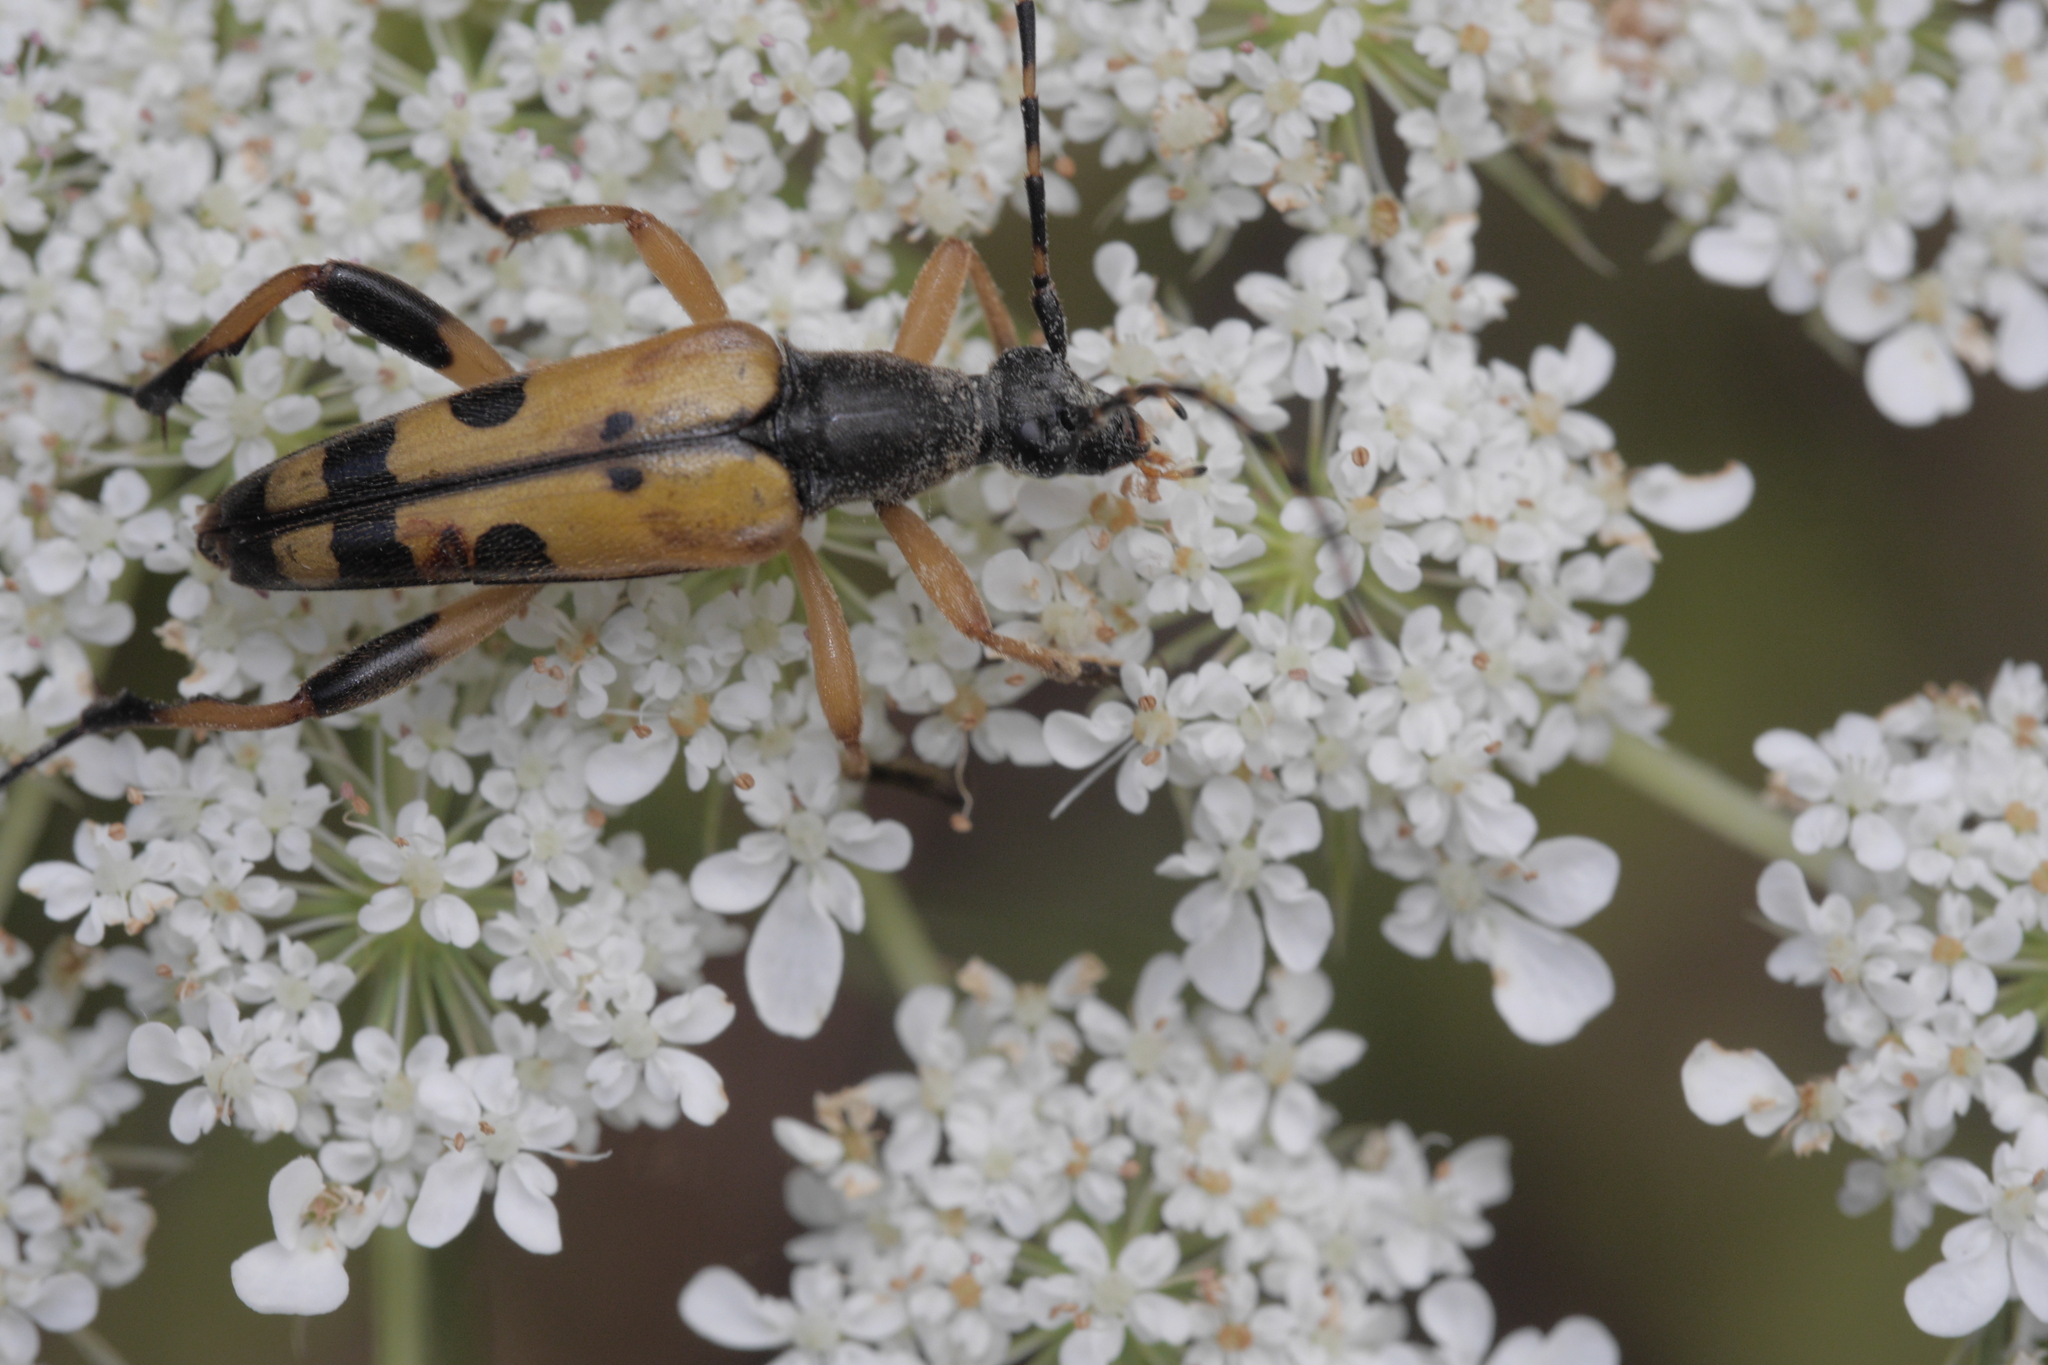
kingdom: Animalia
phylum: Arthropoda
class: Insecta
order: Coleoptera
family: Cerambycidae
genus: Rutpela
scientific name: Rutpela maculata
